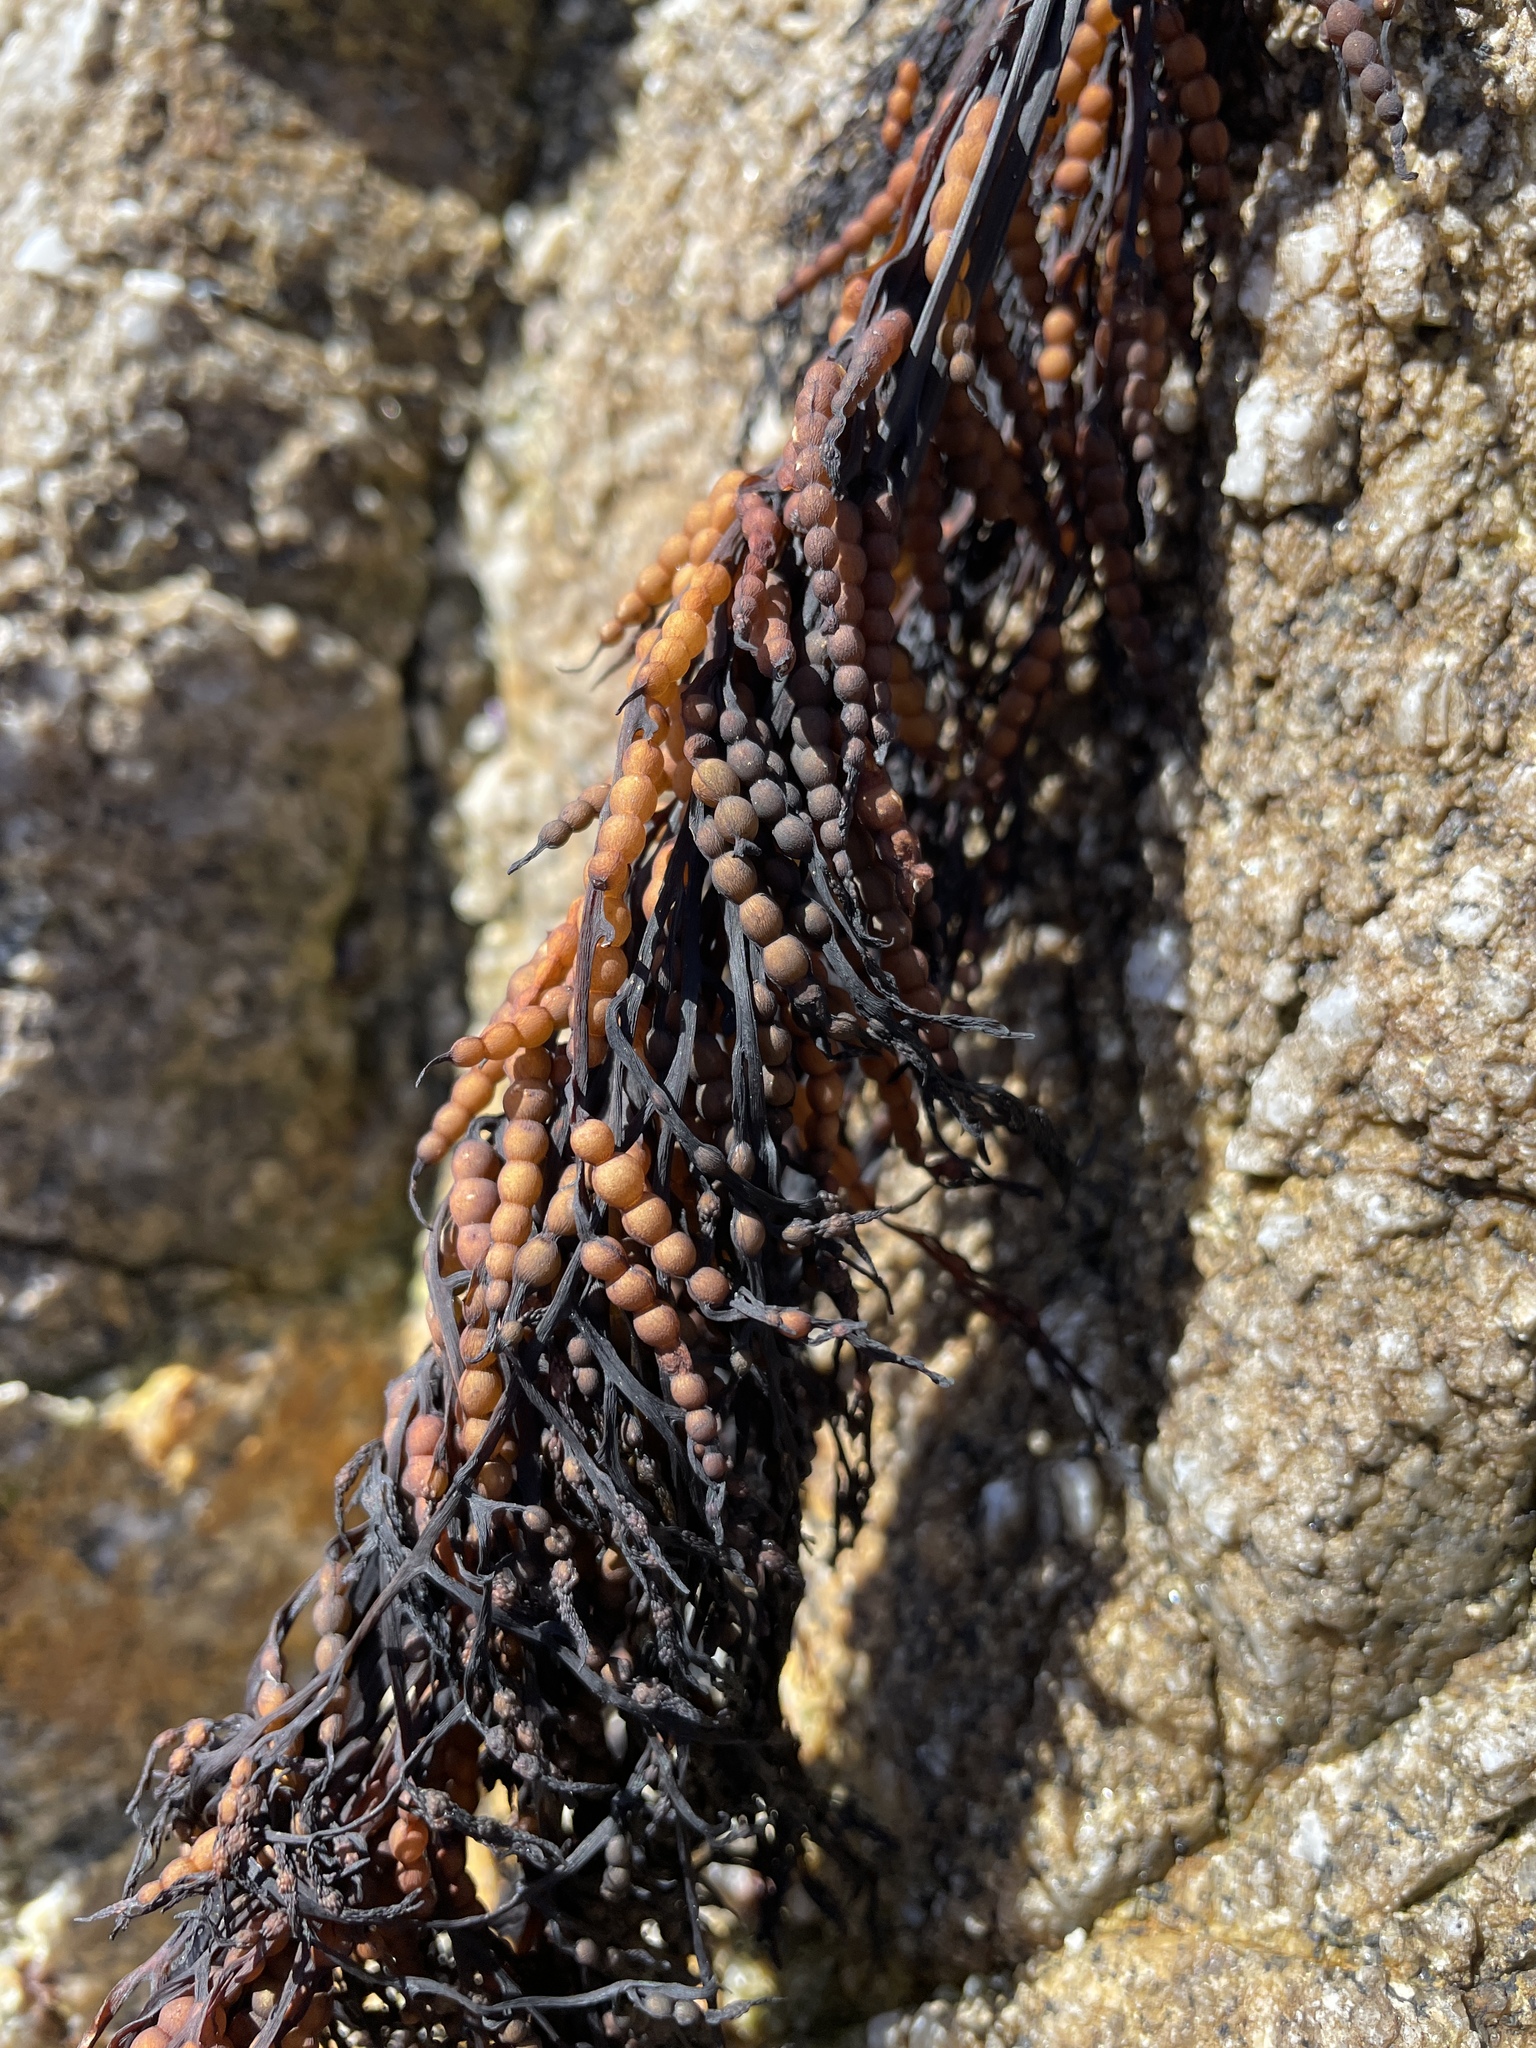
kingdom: Chromista
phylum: Ochrophyta
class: Phaeophyceae
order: Fucales
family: Sargassaceae
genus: Stephanocystis
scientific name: Stephanocystis
